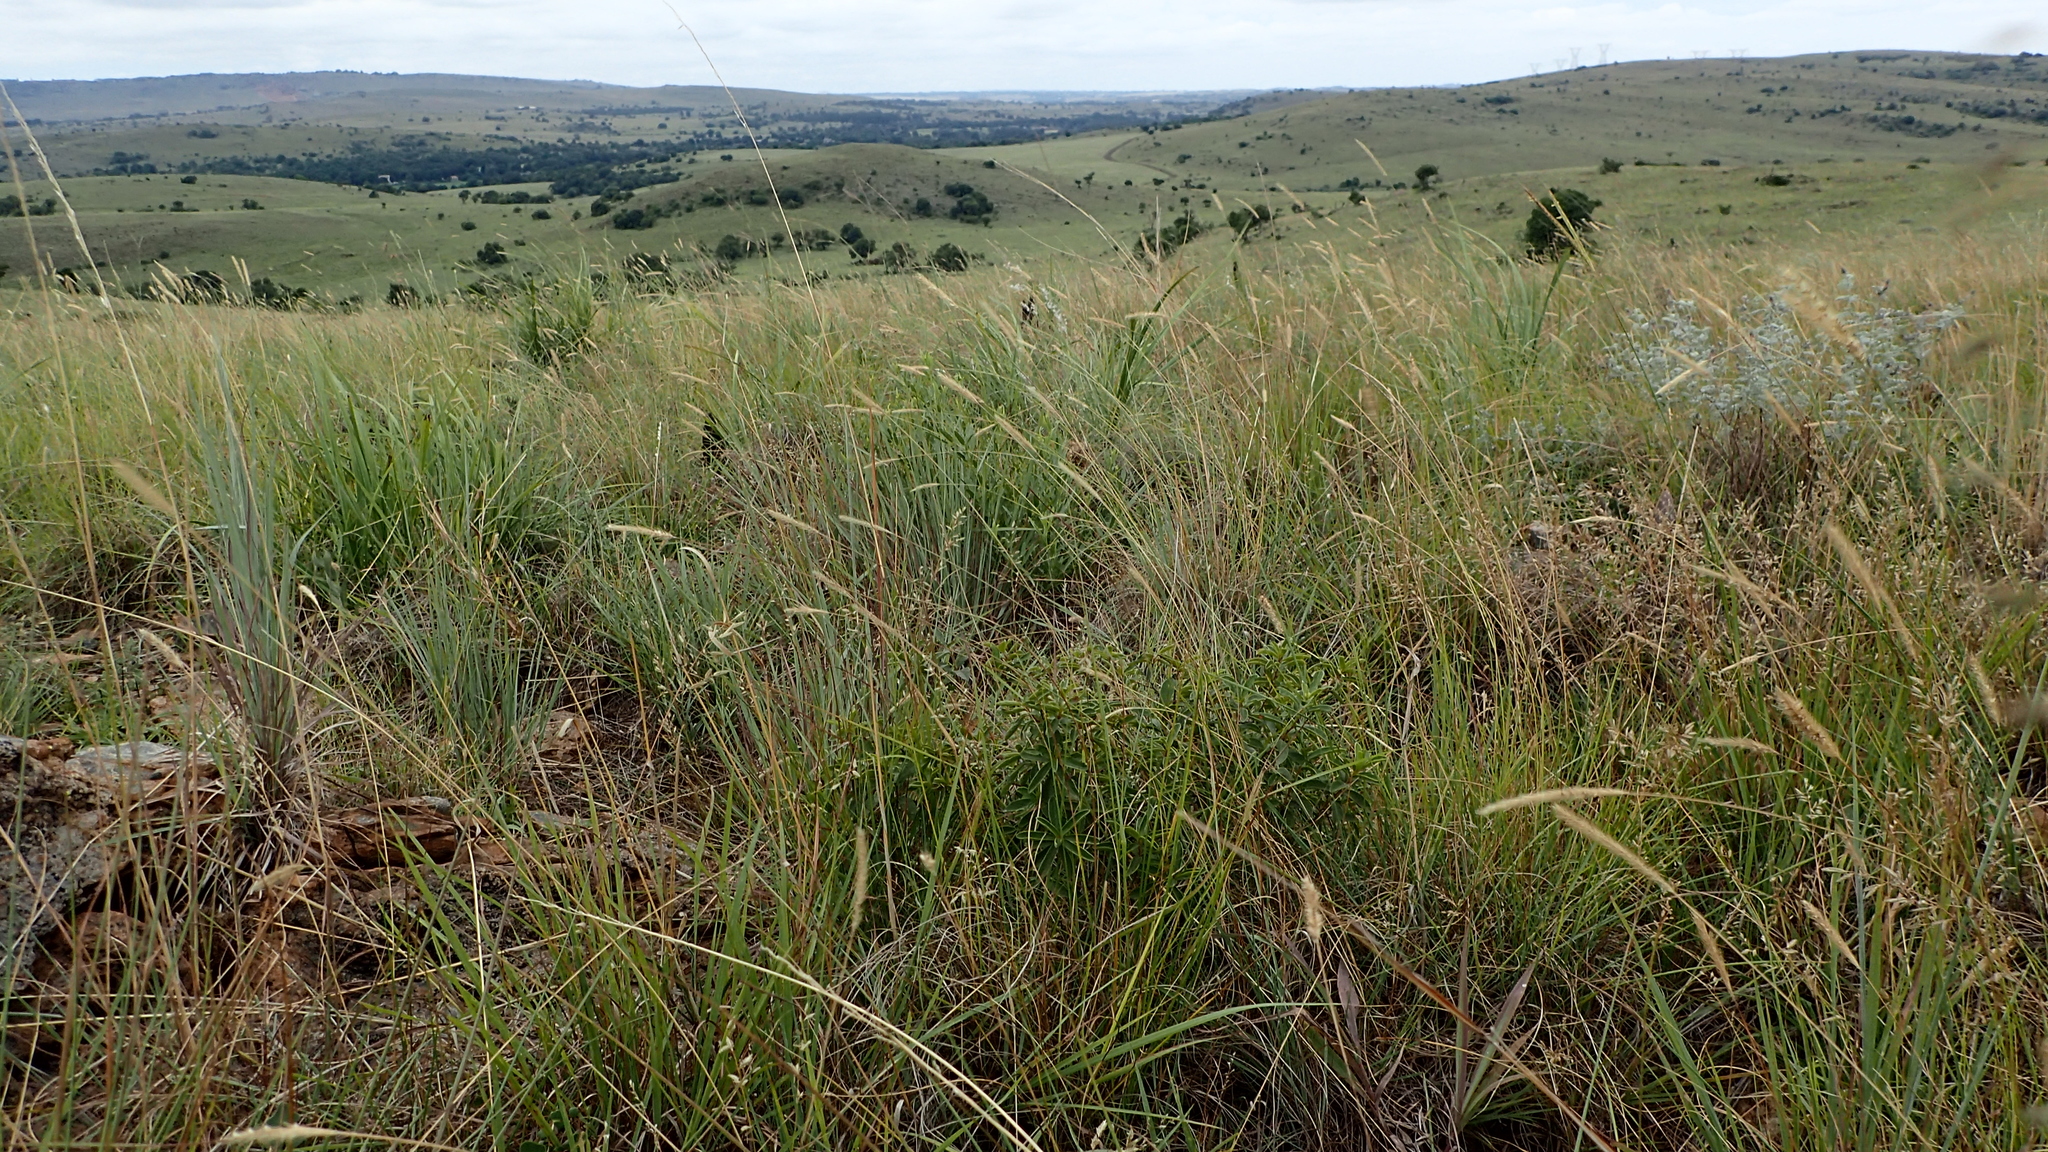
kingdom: Plantae
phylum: Tracheophyta
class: Liliopsida
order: Poales
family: Poaceae
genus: Setaria
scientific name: Setaria sphacelata
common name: African bristlegrass
